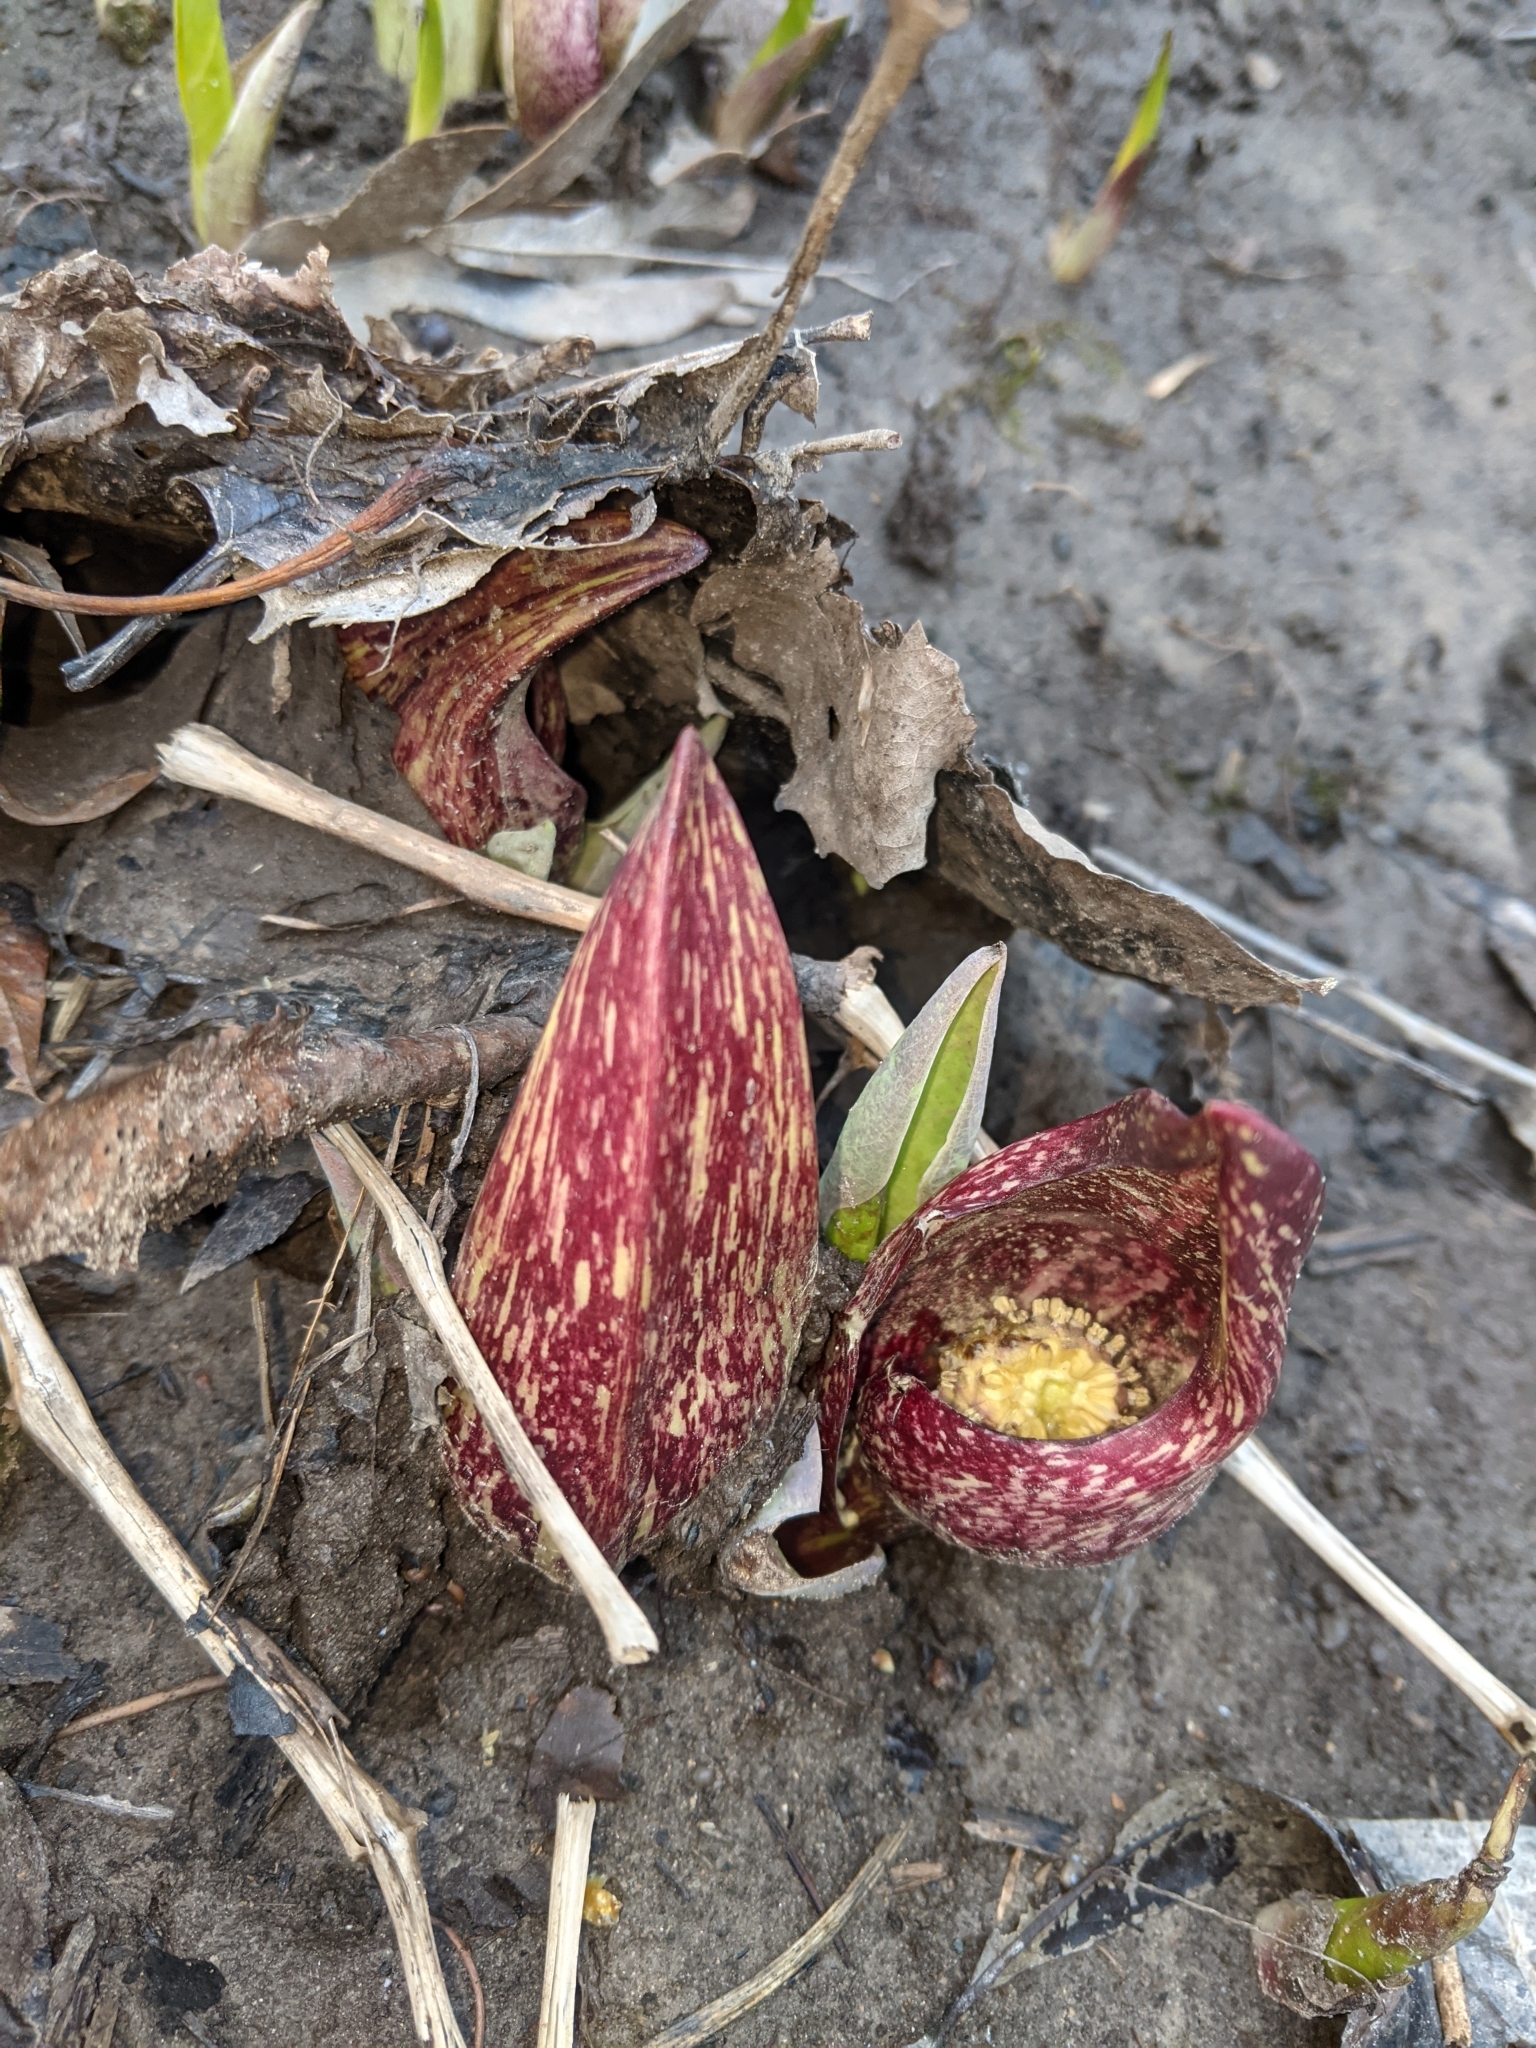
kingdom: Plantae
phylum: Tracheophyta
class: Liliopsida
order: Alismatales
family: Araceae
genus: Symplocarpus
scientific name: Symplocarpus foetidus
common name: Eastern skunk cabbage
